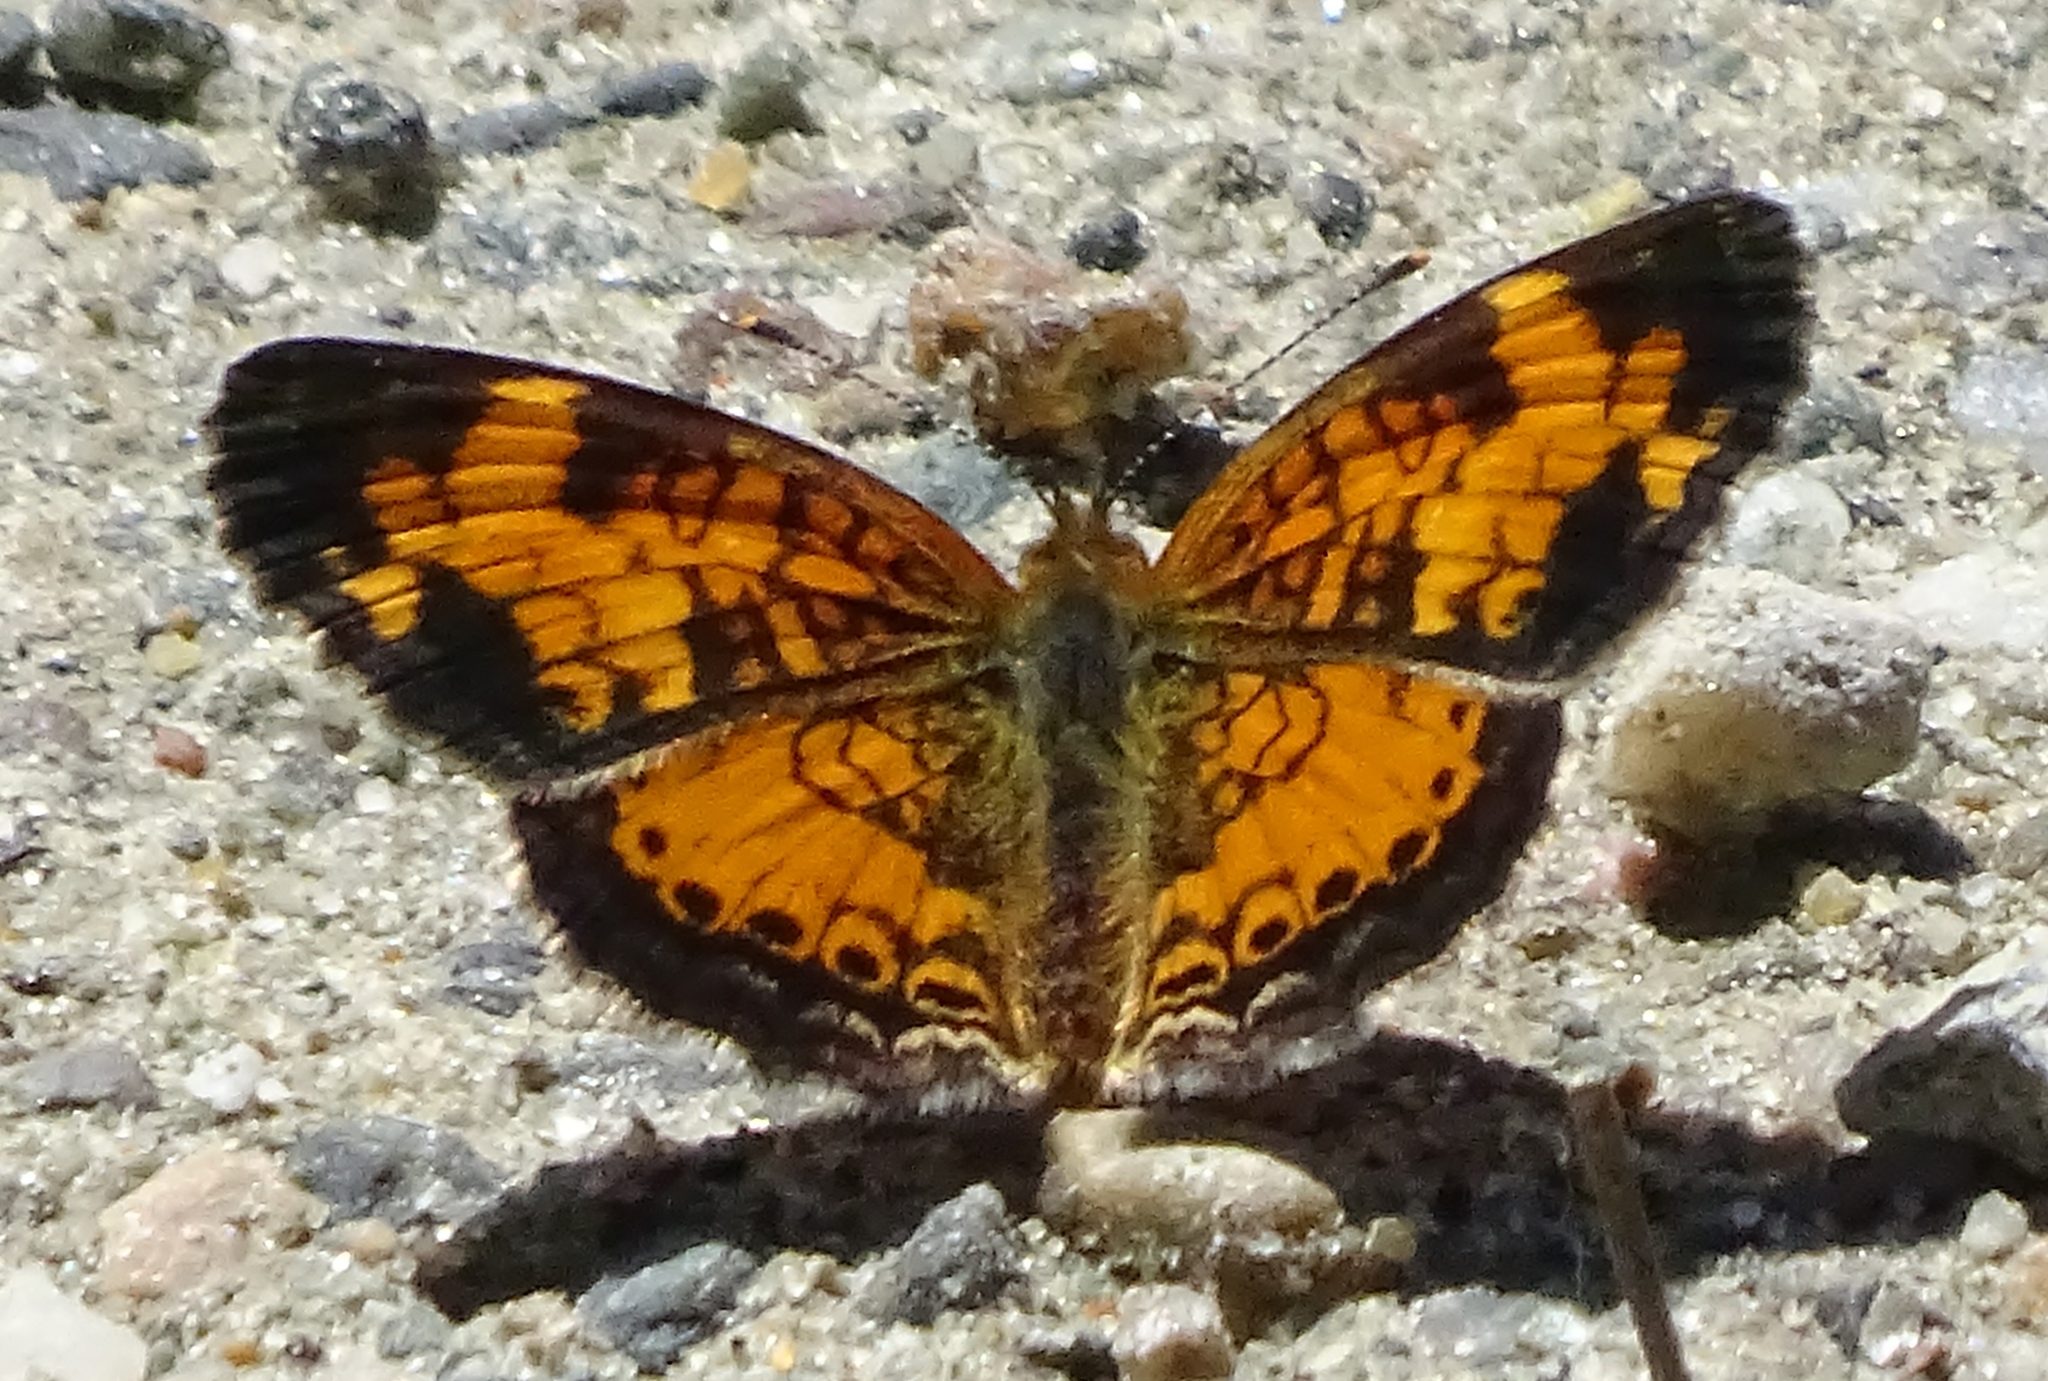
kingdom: Animalia
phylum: Arthropoda
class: Insecta
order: Lepidoptera
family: Nymphalidae
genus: Phyciodes
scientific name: Phyciodes tharos
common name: Pearl crescent
